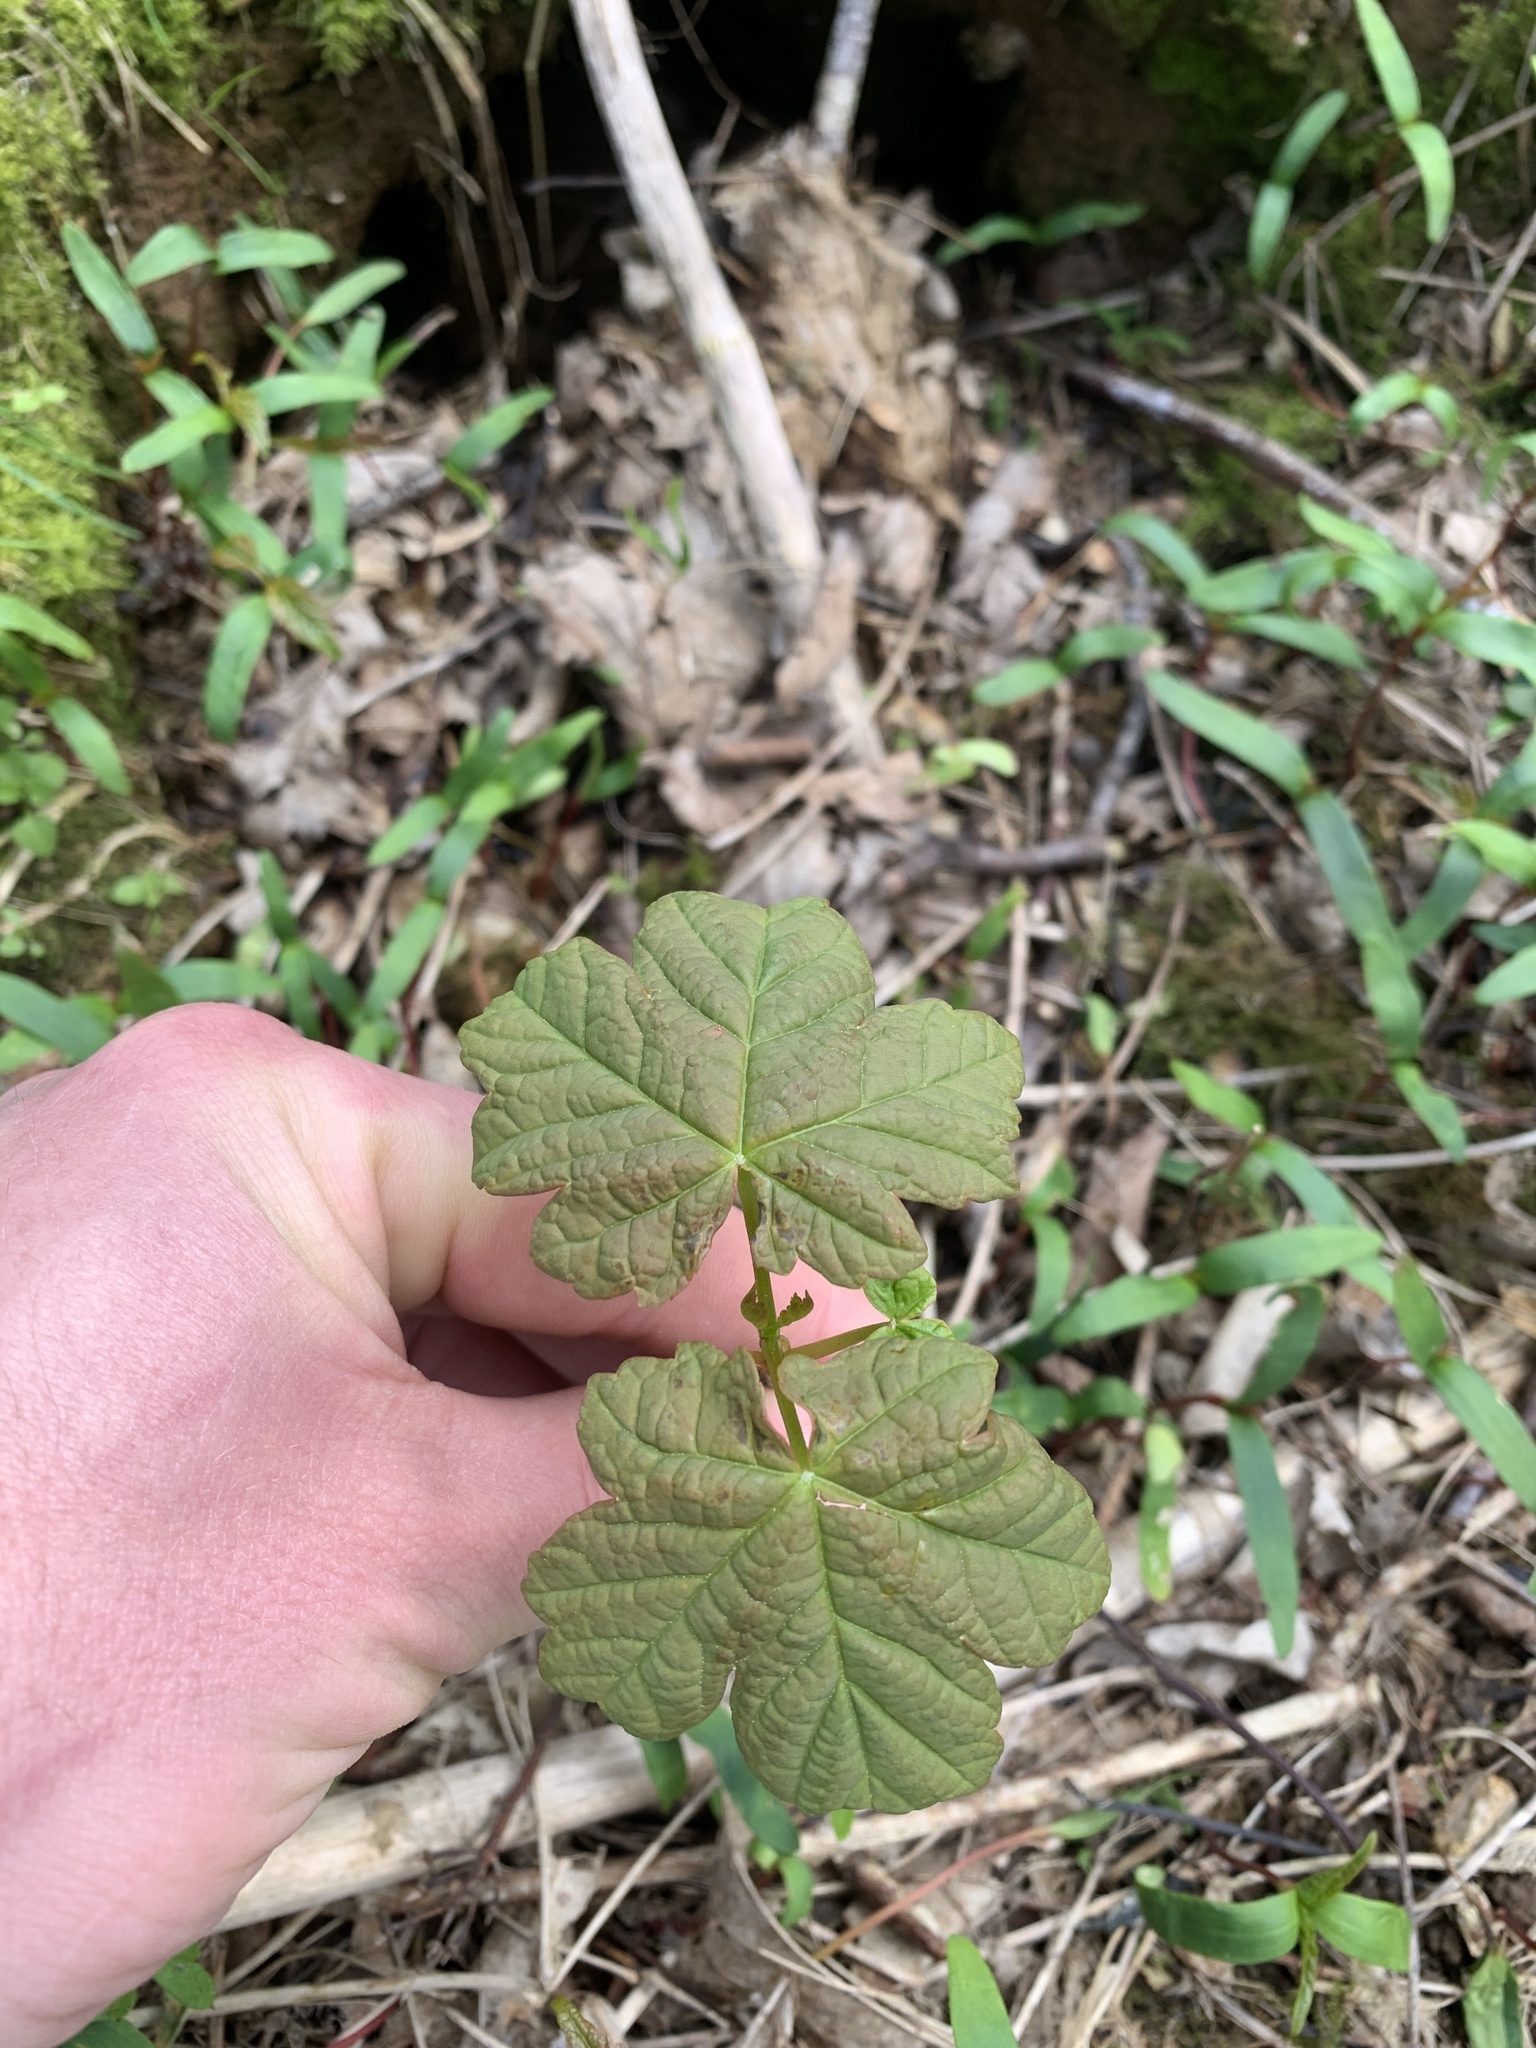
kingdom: Plantae
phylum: Tracheophyta
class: Magnoliopsida
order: Sapindales
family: Sapindaceae
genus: Acer
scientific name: Acer pseudoplatanus
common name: Sycamore
